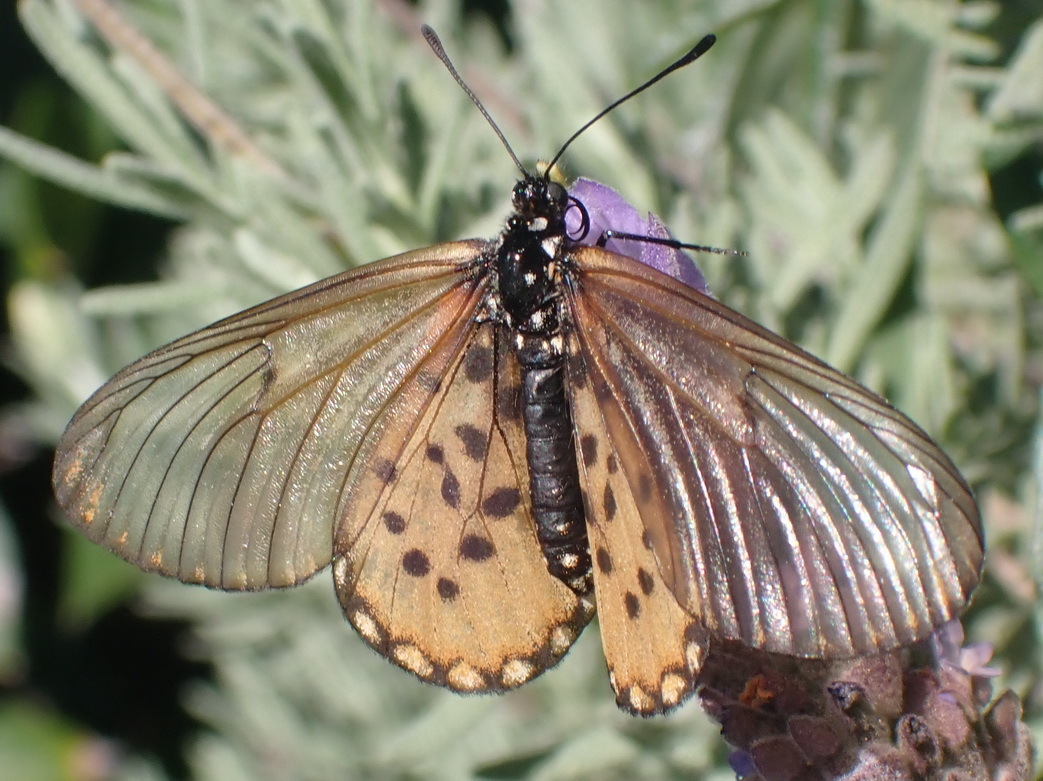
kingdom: Animalia
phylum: Arthropoda
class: Insecta
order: Lepidoptera
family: Nymphalidae
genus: Acraea
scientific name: Acraea horta
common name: Garden acraea
